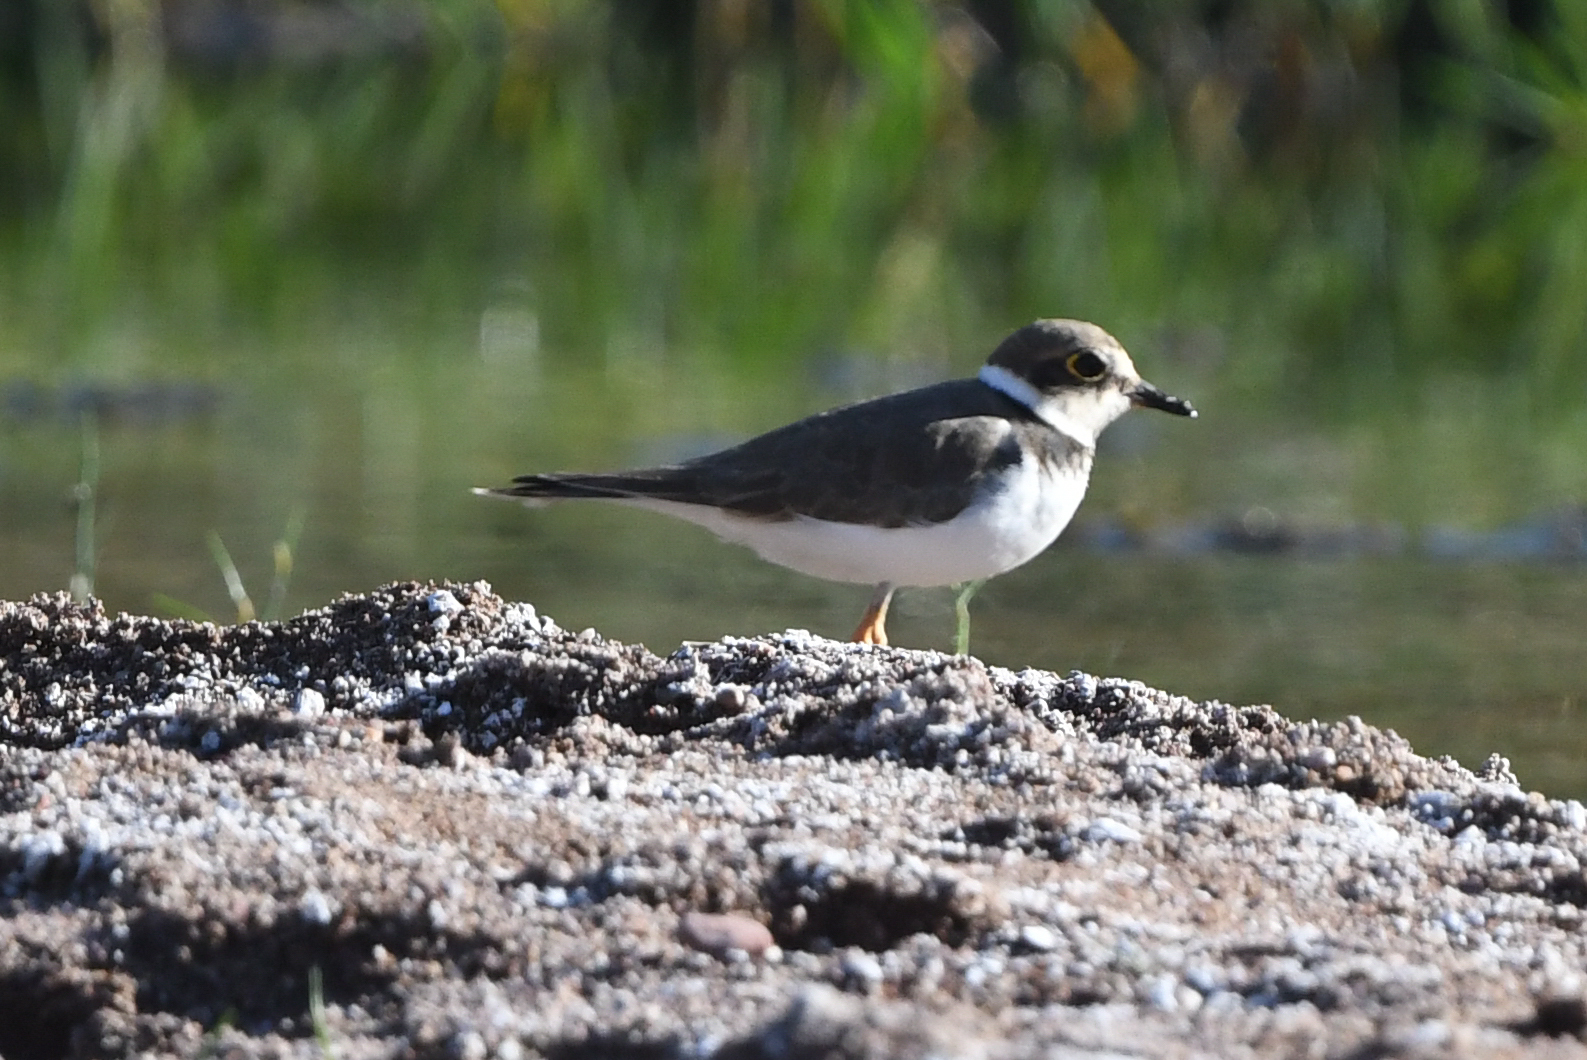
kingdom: Animalia
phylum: Chordata
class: Aves
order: Charadriiformes
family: Charadriidae
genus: Charadrius
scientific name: Charadrius dubius
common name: Little ringed plover
